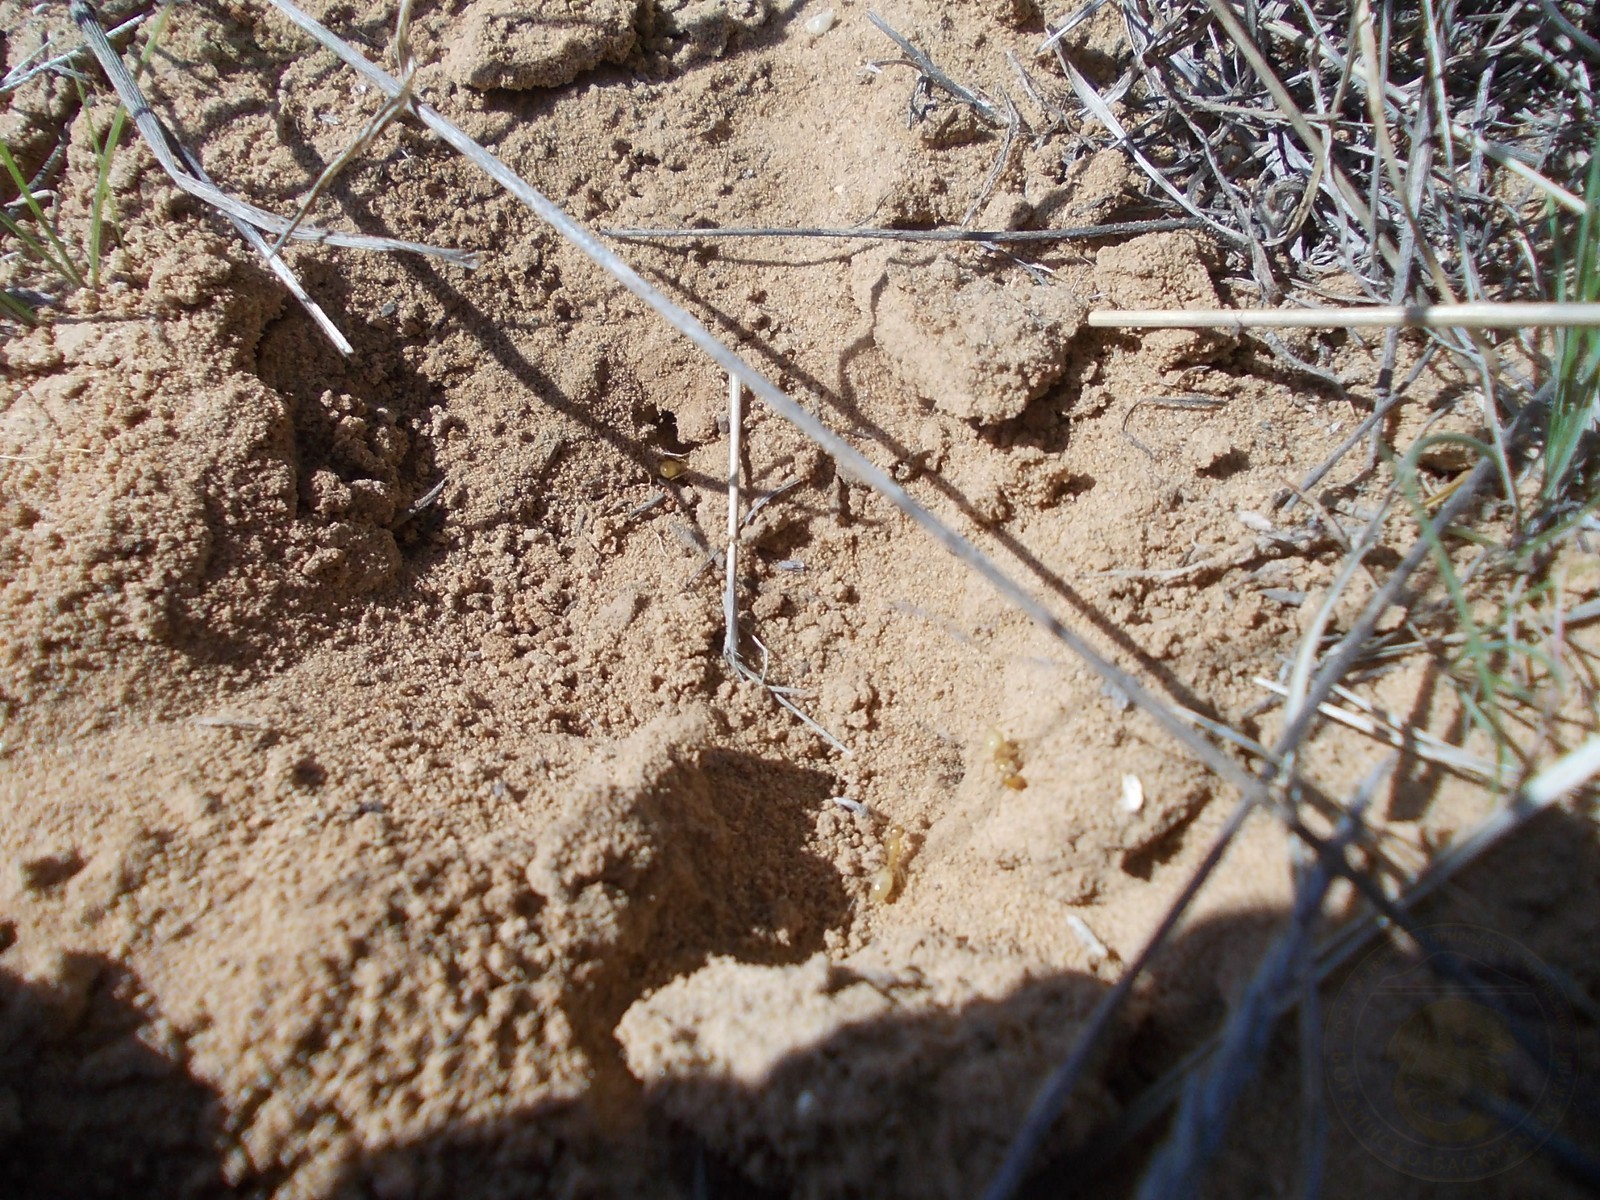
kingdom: Animalia
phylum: Arthropoda
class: Insecta
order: Hymenoptera
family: Formicidae
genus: Camponotus
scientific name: Camponotus fedtschenkoi
